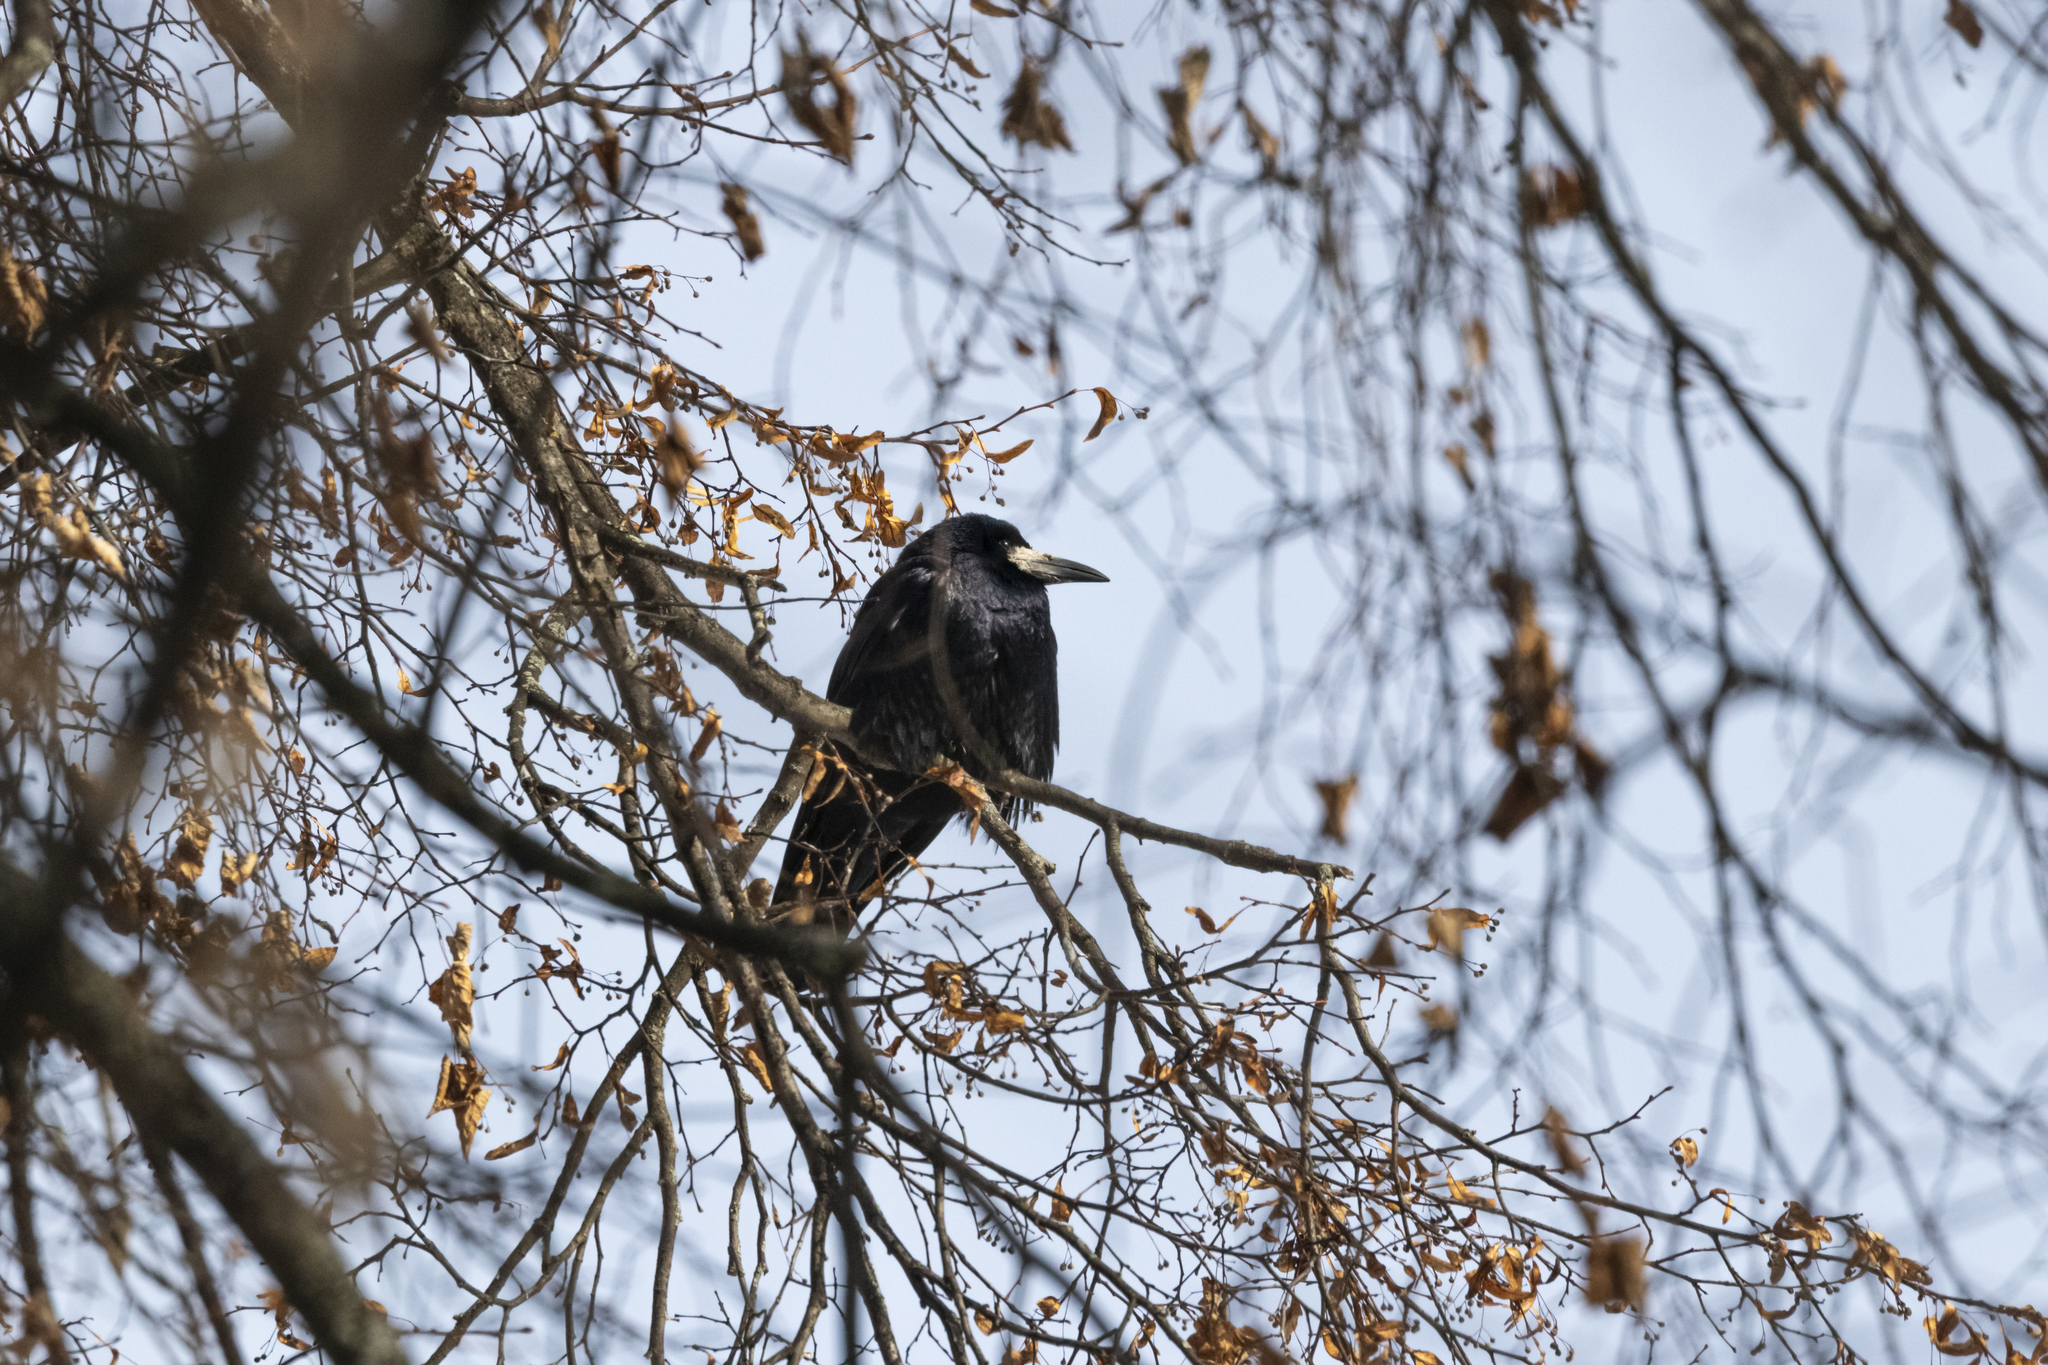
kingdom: Animalia
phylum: Chordata
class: Aves
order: Passeriformes
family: Corvidae
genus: Corvus
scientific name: Corvus frugilegus
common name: Rook
